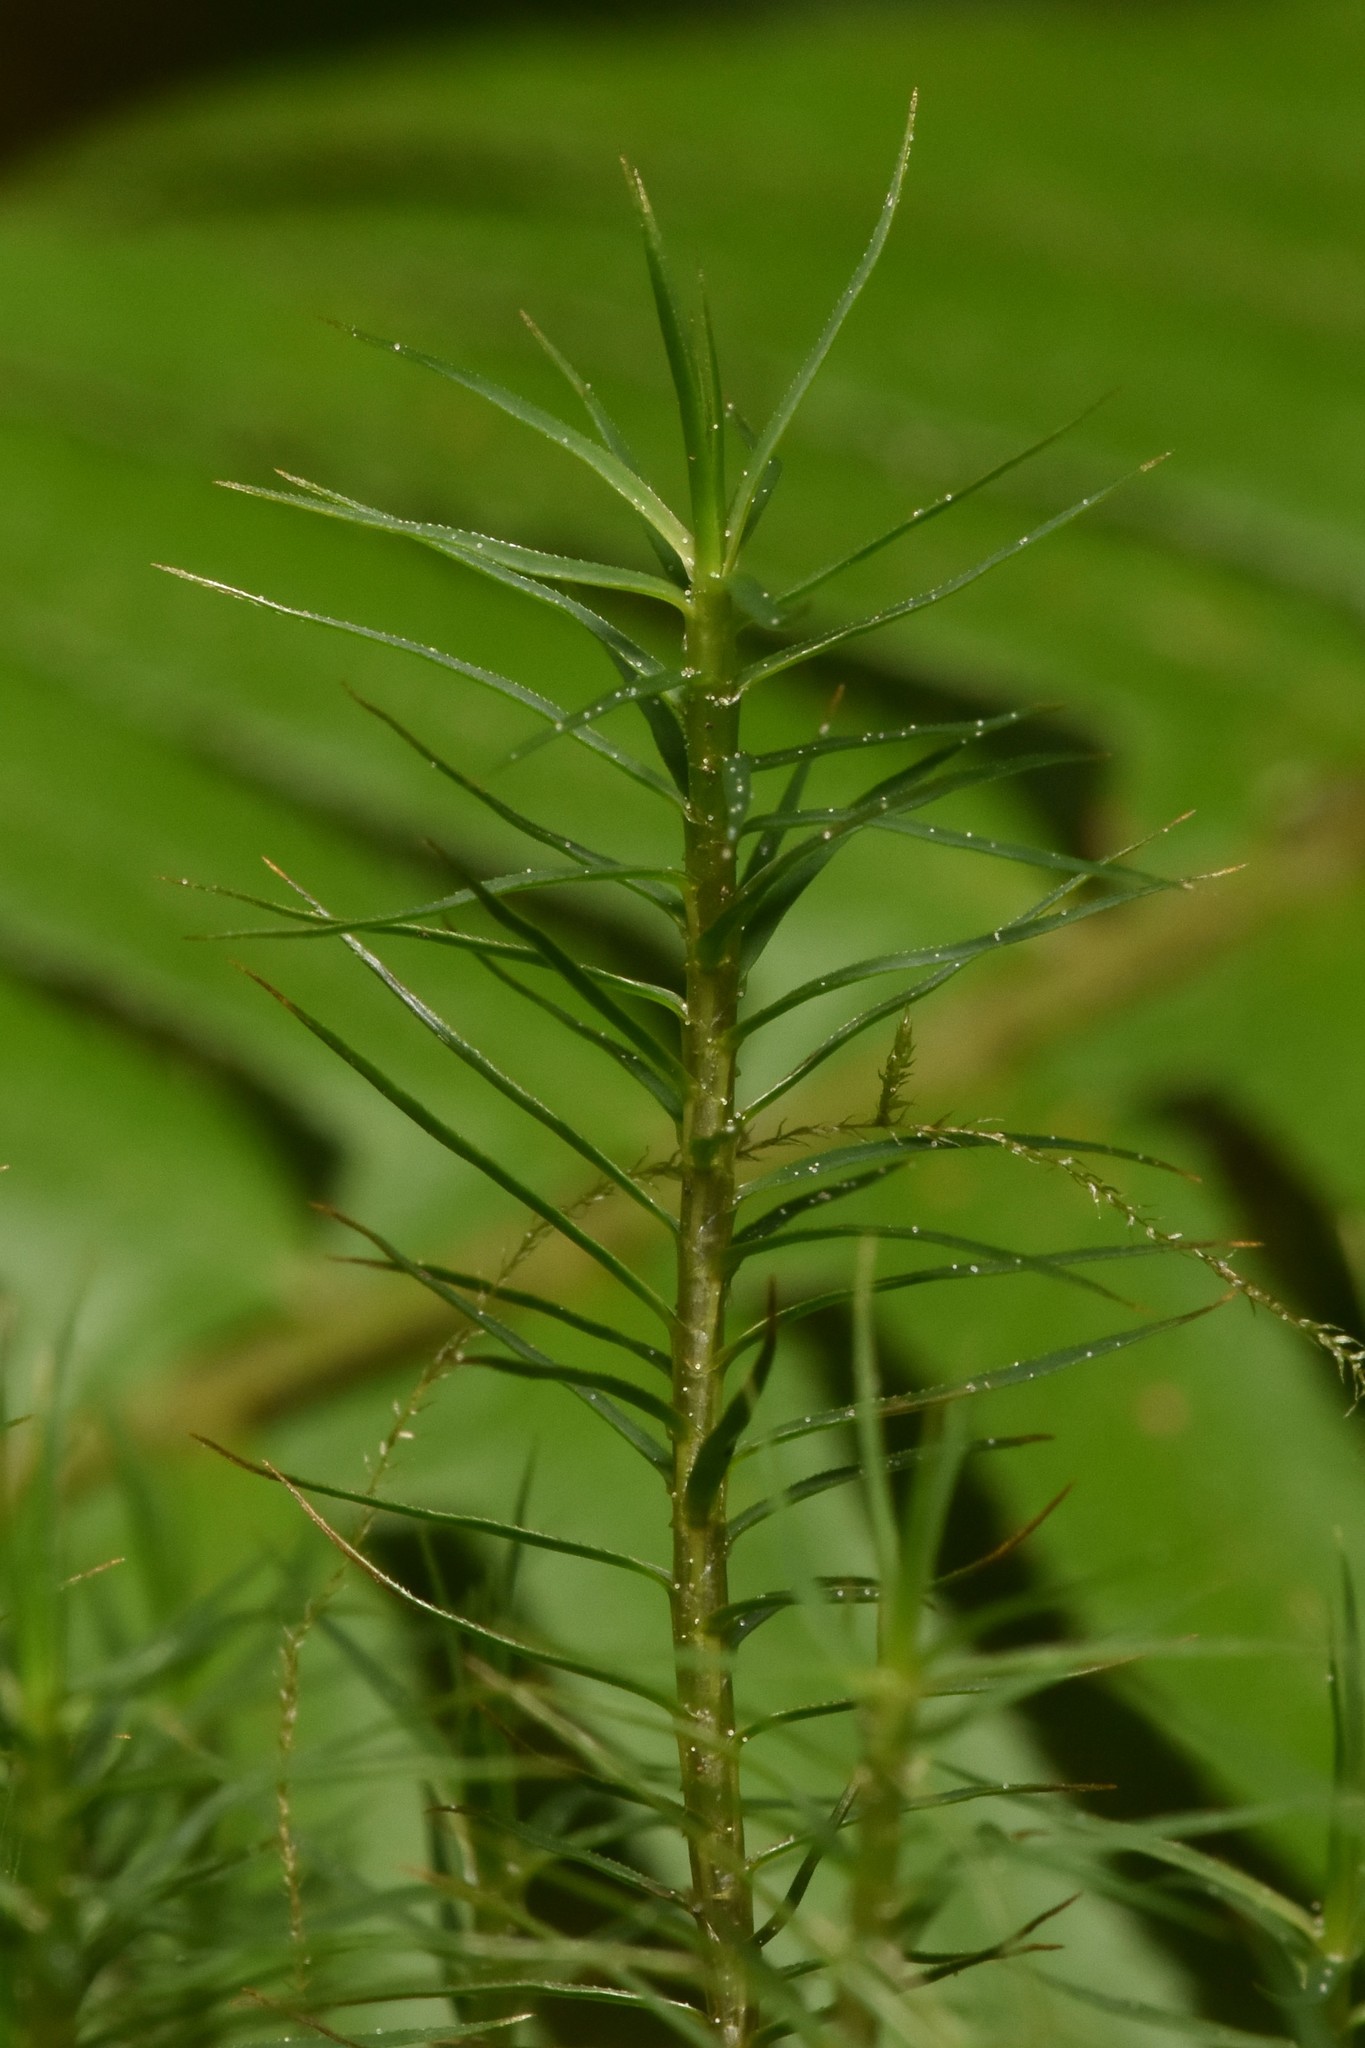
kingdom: Plantae
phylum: Bryophyta
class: Polytrichopsida
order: Polytrichales
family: Polytrichaceae
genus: Polytrichum
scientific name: Polytrichum commune
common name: Common haircap
